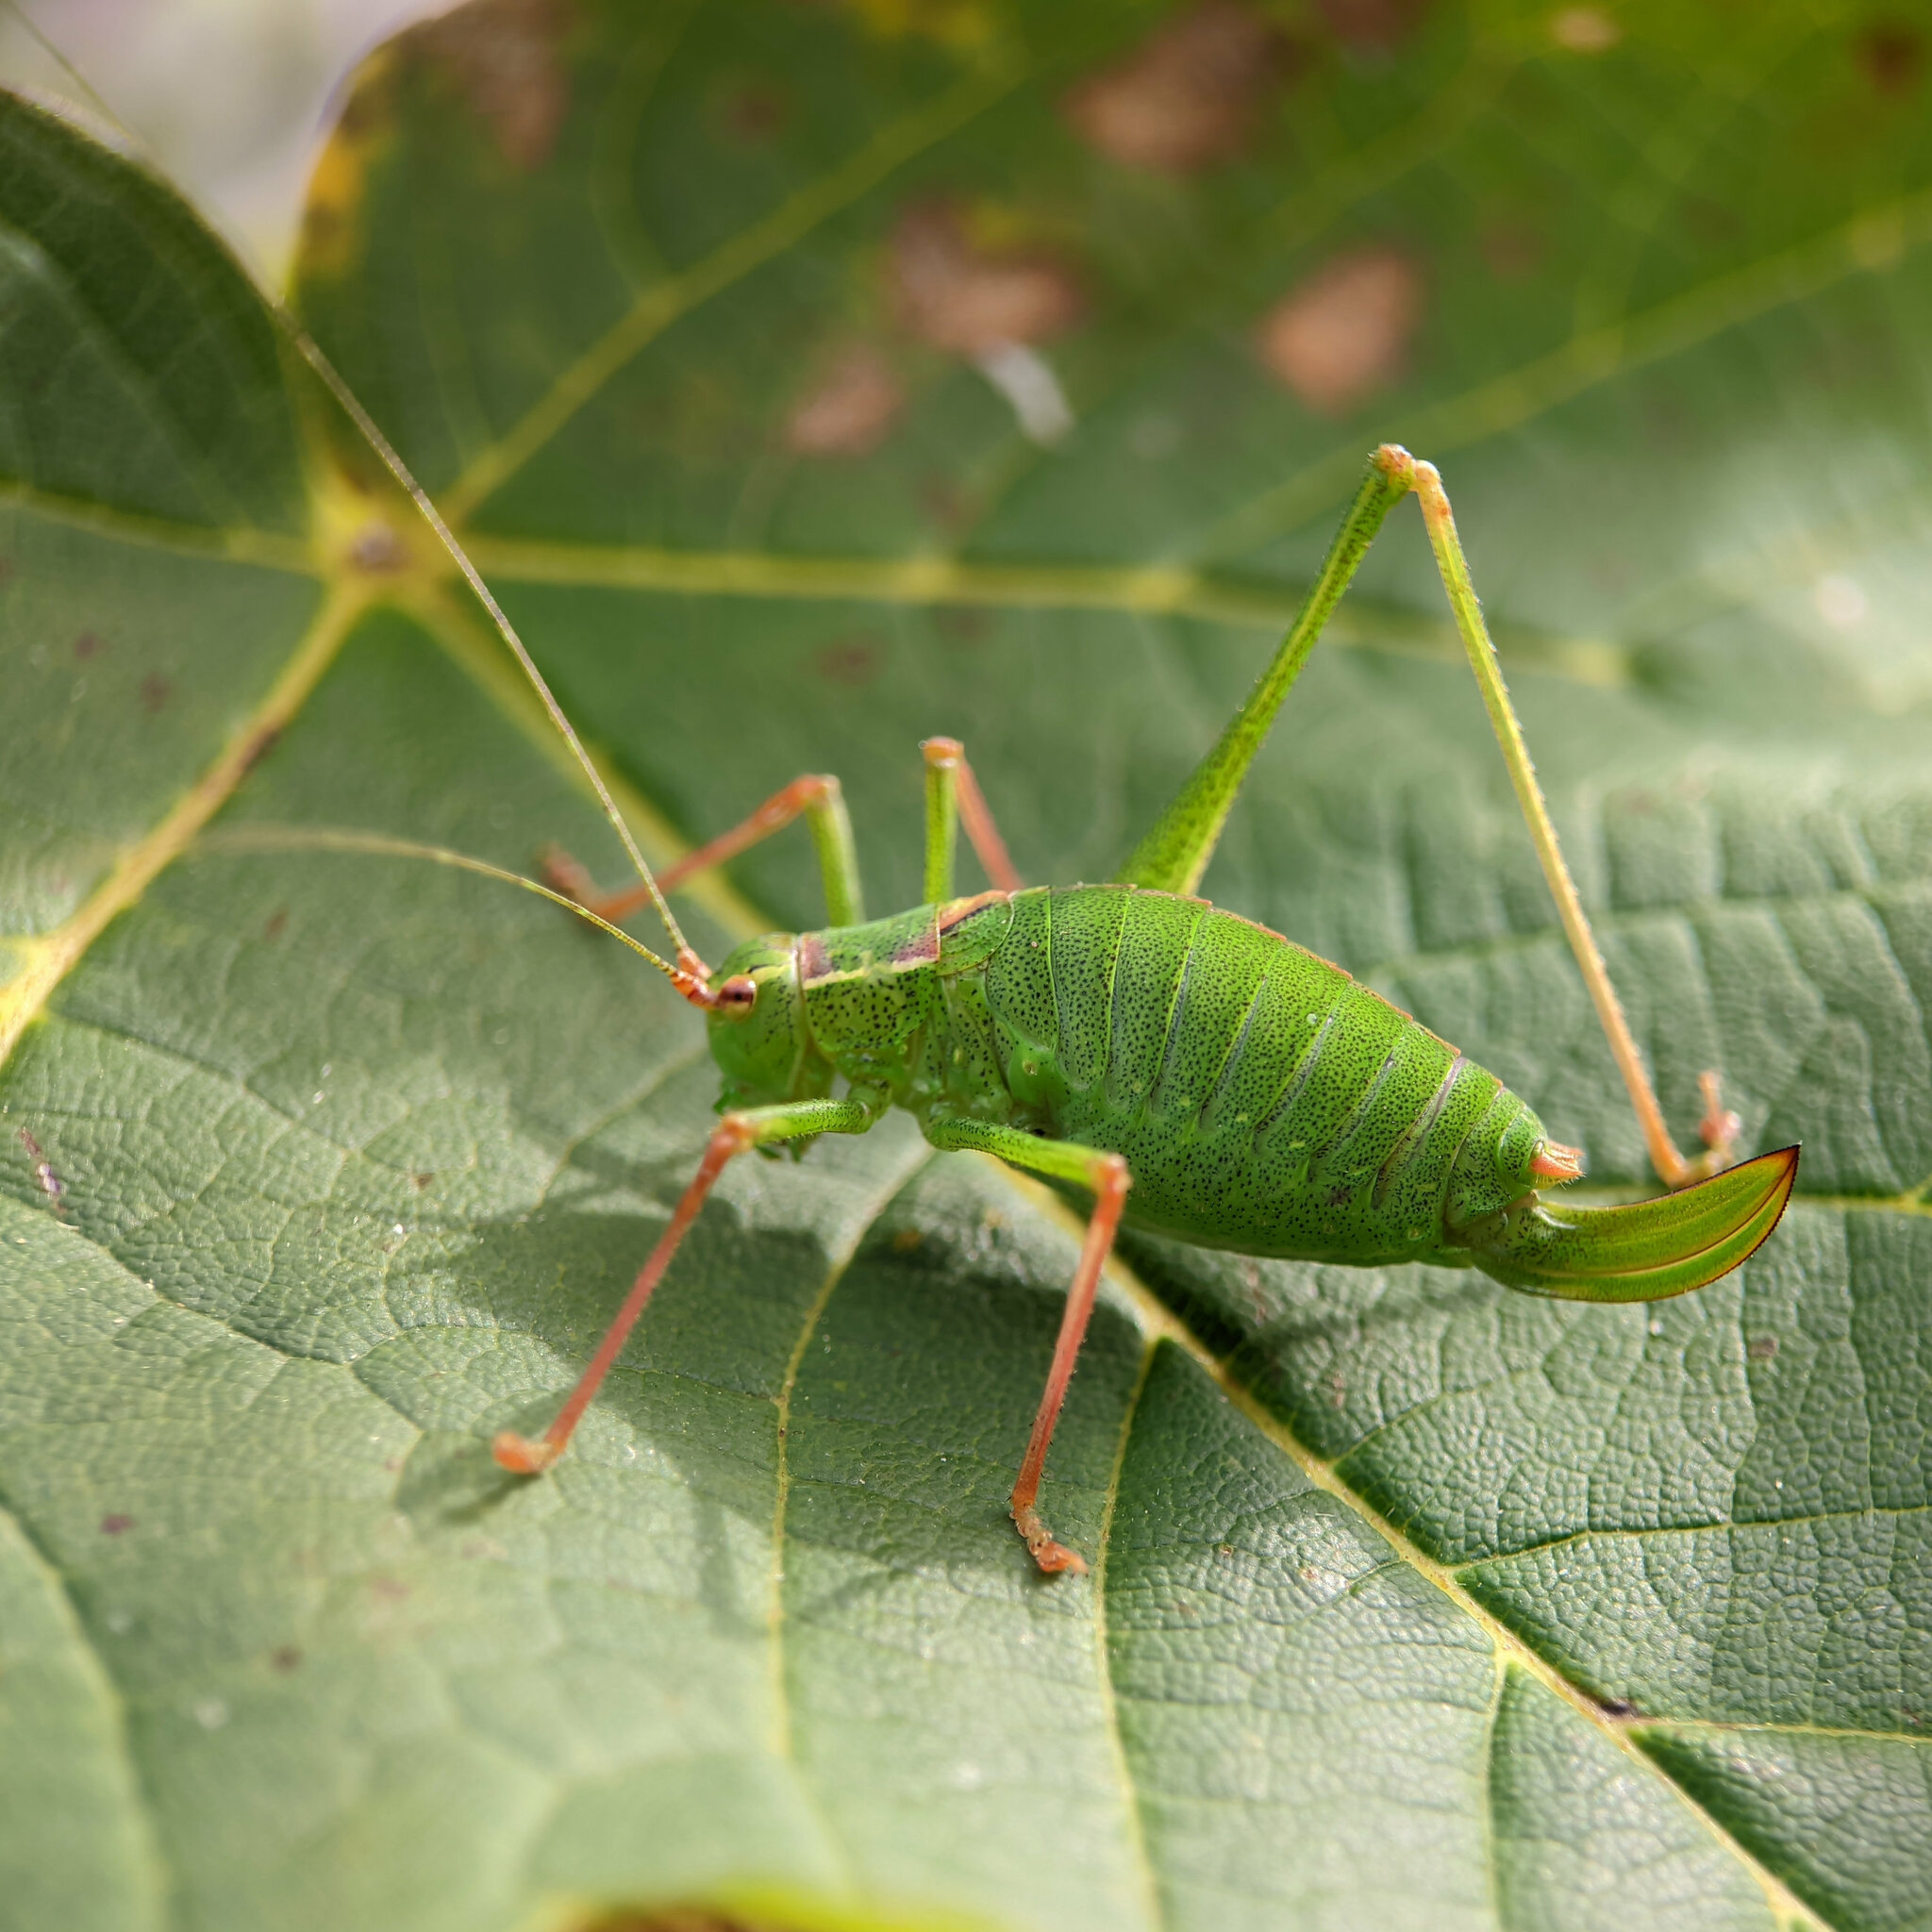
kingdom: Animalia
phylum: Arthropoda
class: Insecta
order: Orthoptera
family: Tettigoniidae
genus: Leptophyes
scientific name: Leptophyes punctatissima
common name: Speckled bush-cricket
